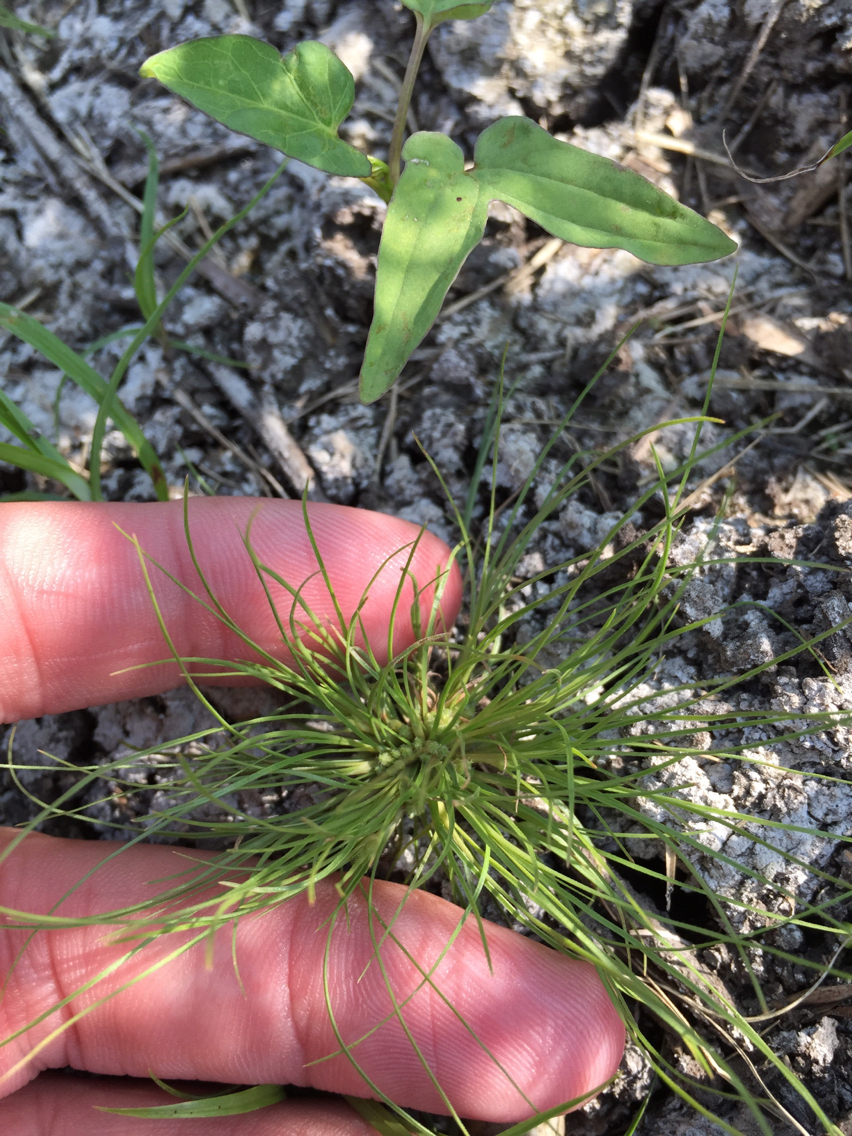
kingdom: Plantae
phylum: Tracheophyta
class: Liliopsida
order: Poales
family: Cyperaceae
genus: Fimbristylis
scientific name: Fimbristylis vahlii
